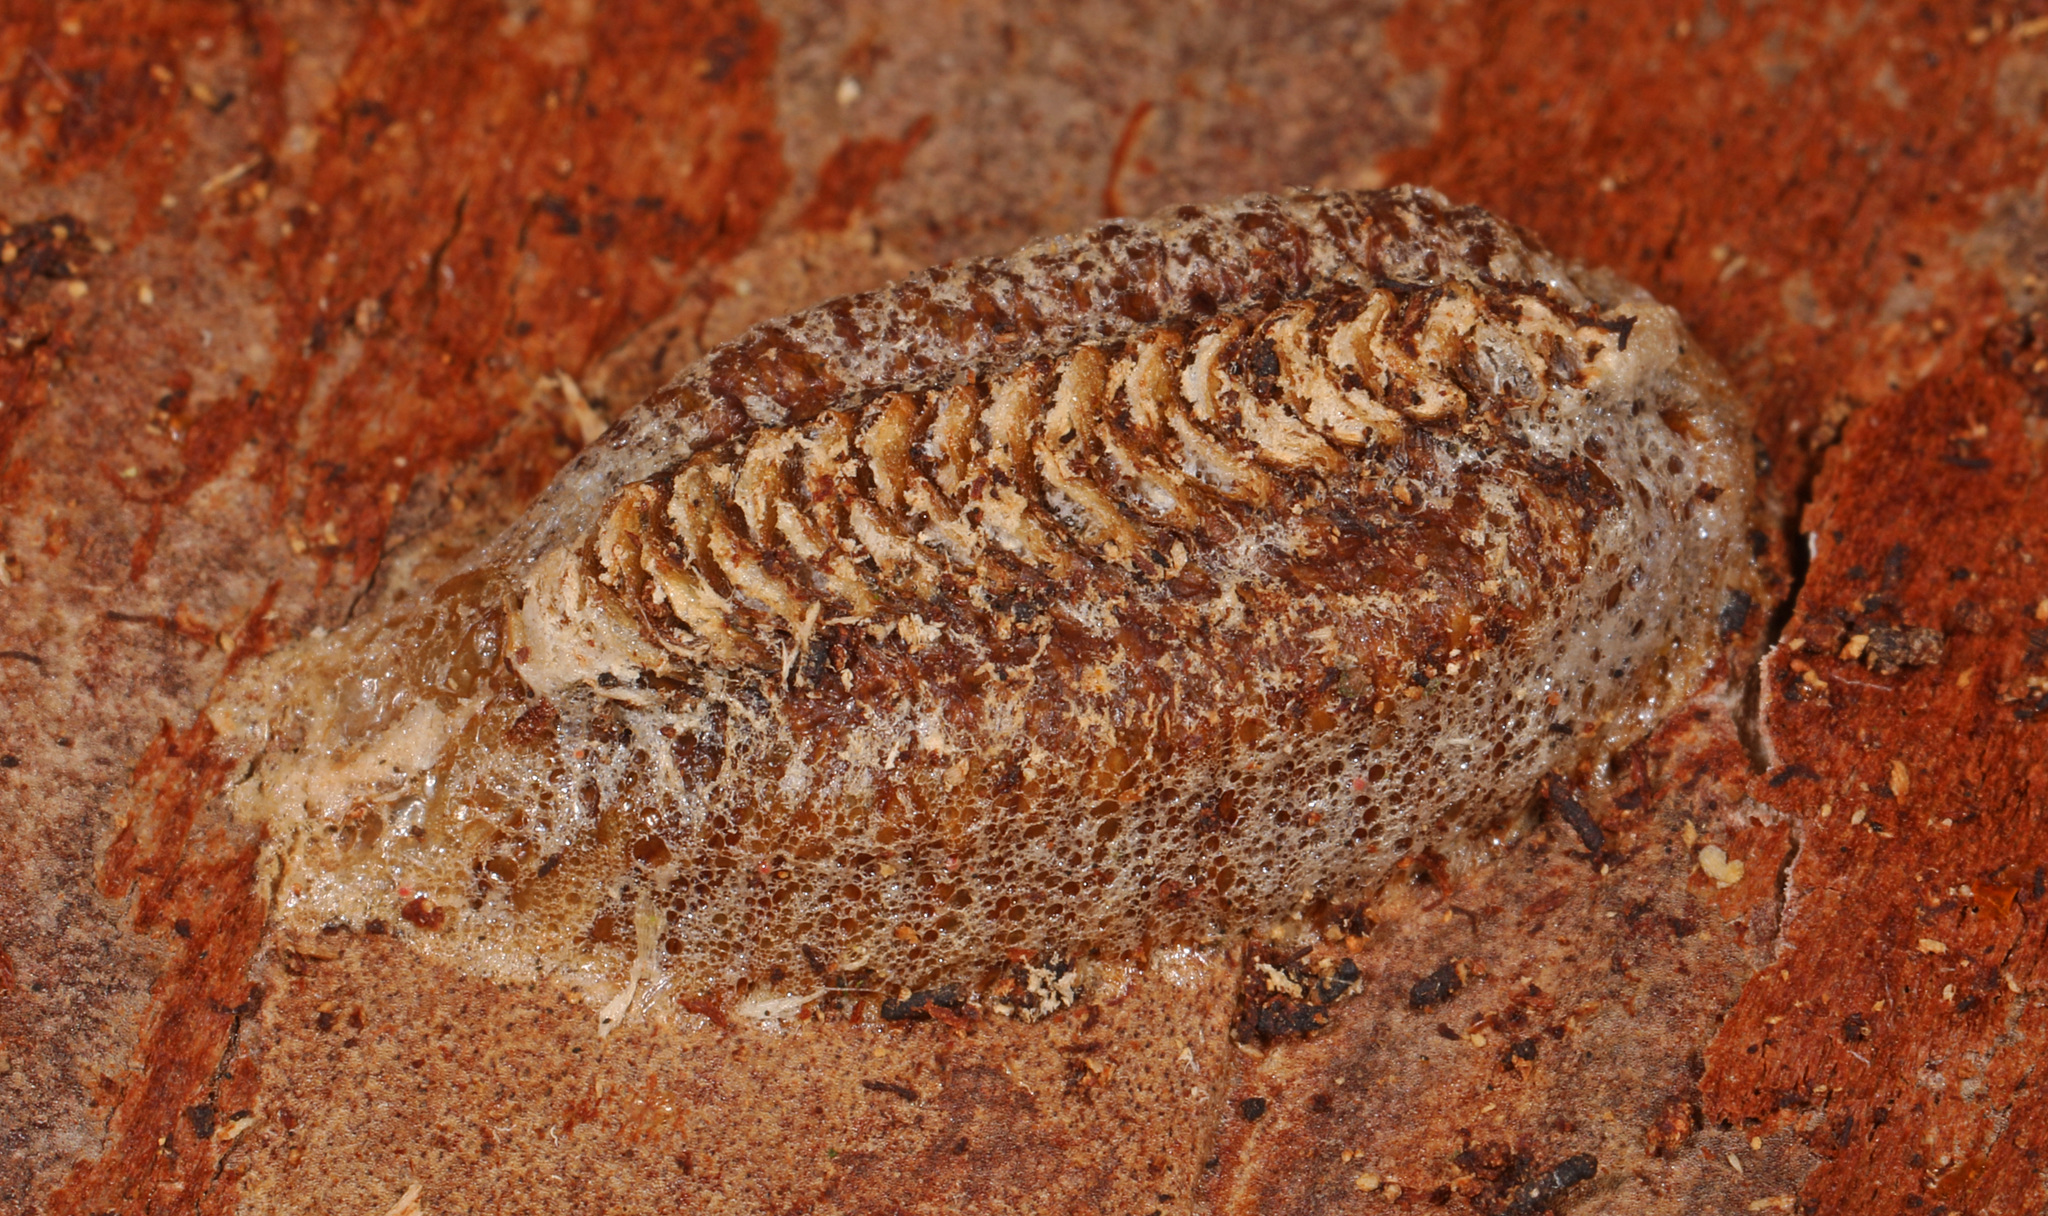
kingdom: Animalia
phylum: Arthropoda
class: Insecta
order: Mantodea
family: Mantidae
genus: Stagmomantis
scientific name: Stagmomantis carolina
